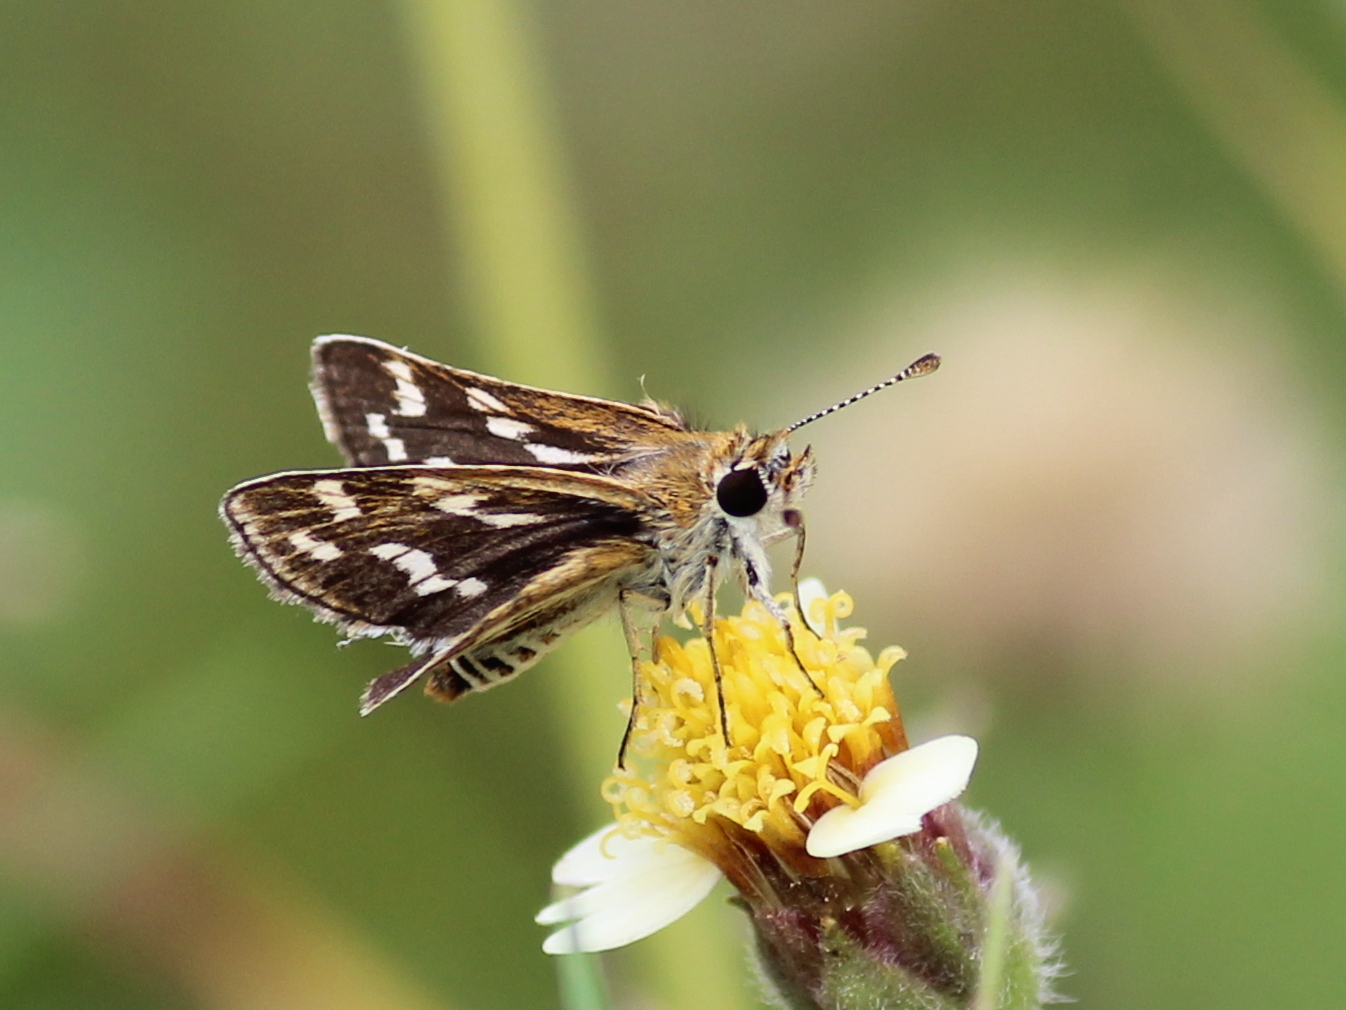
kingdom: Animalia
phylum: Arthropoda
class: Insecta
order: Lepidoptera
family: Hesperiidae
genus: Taractrocera
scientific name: Taractrocera maevius
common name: Common grass-dart
